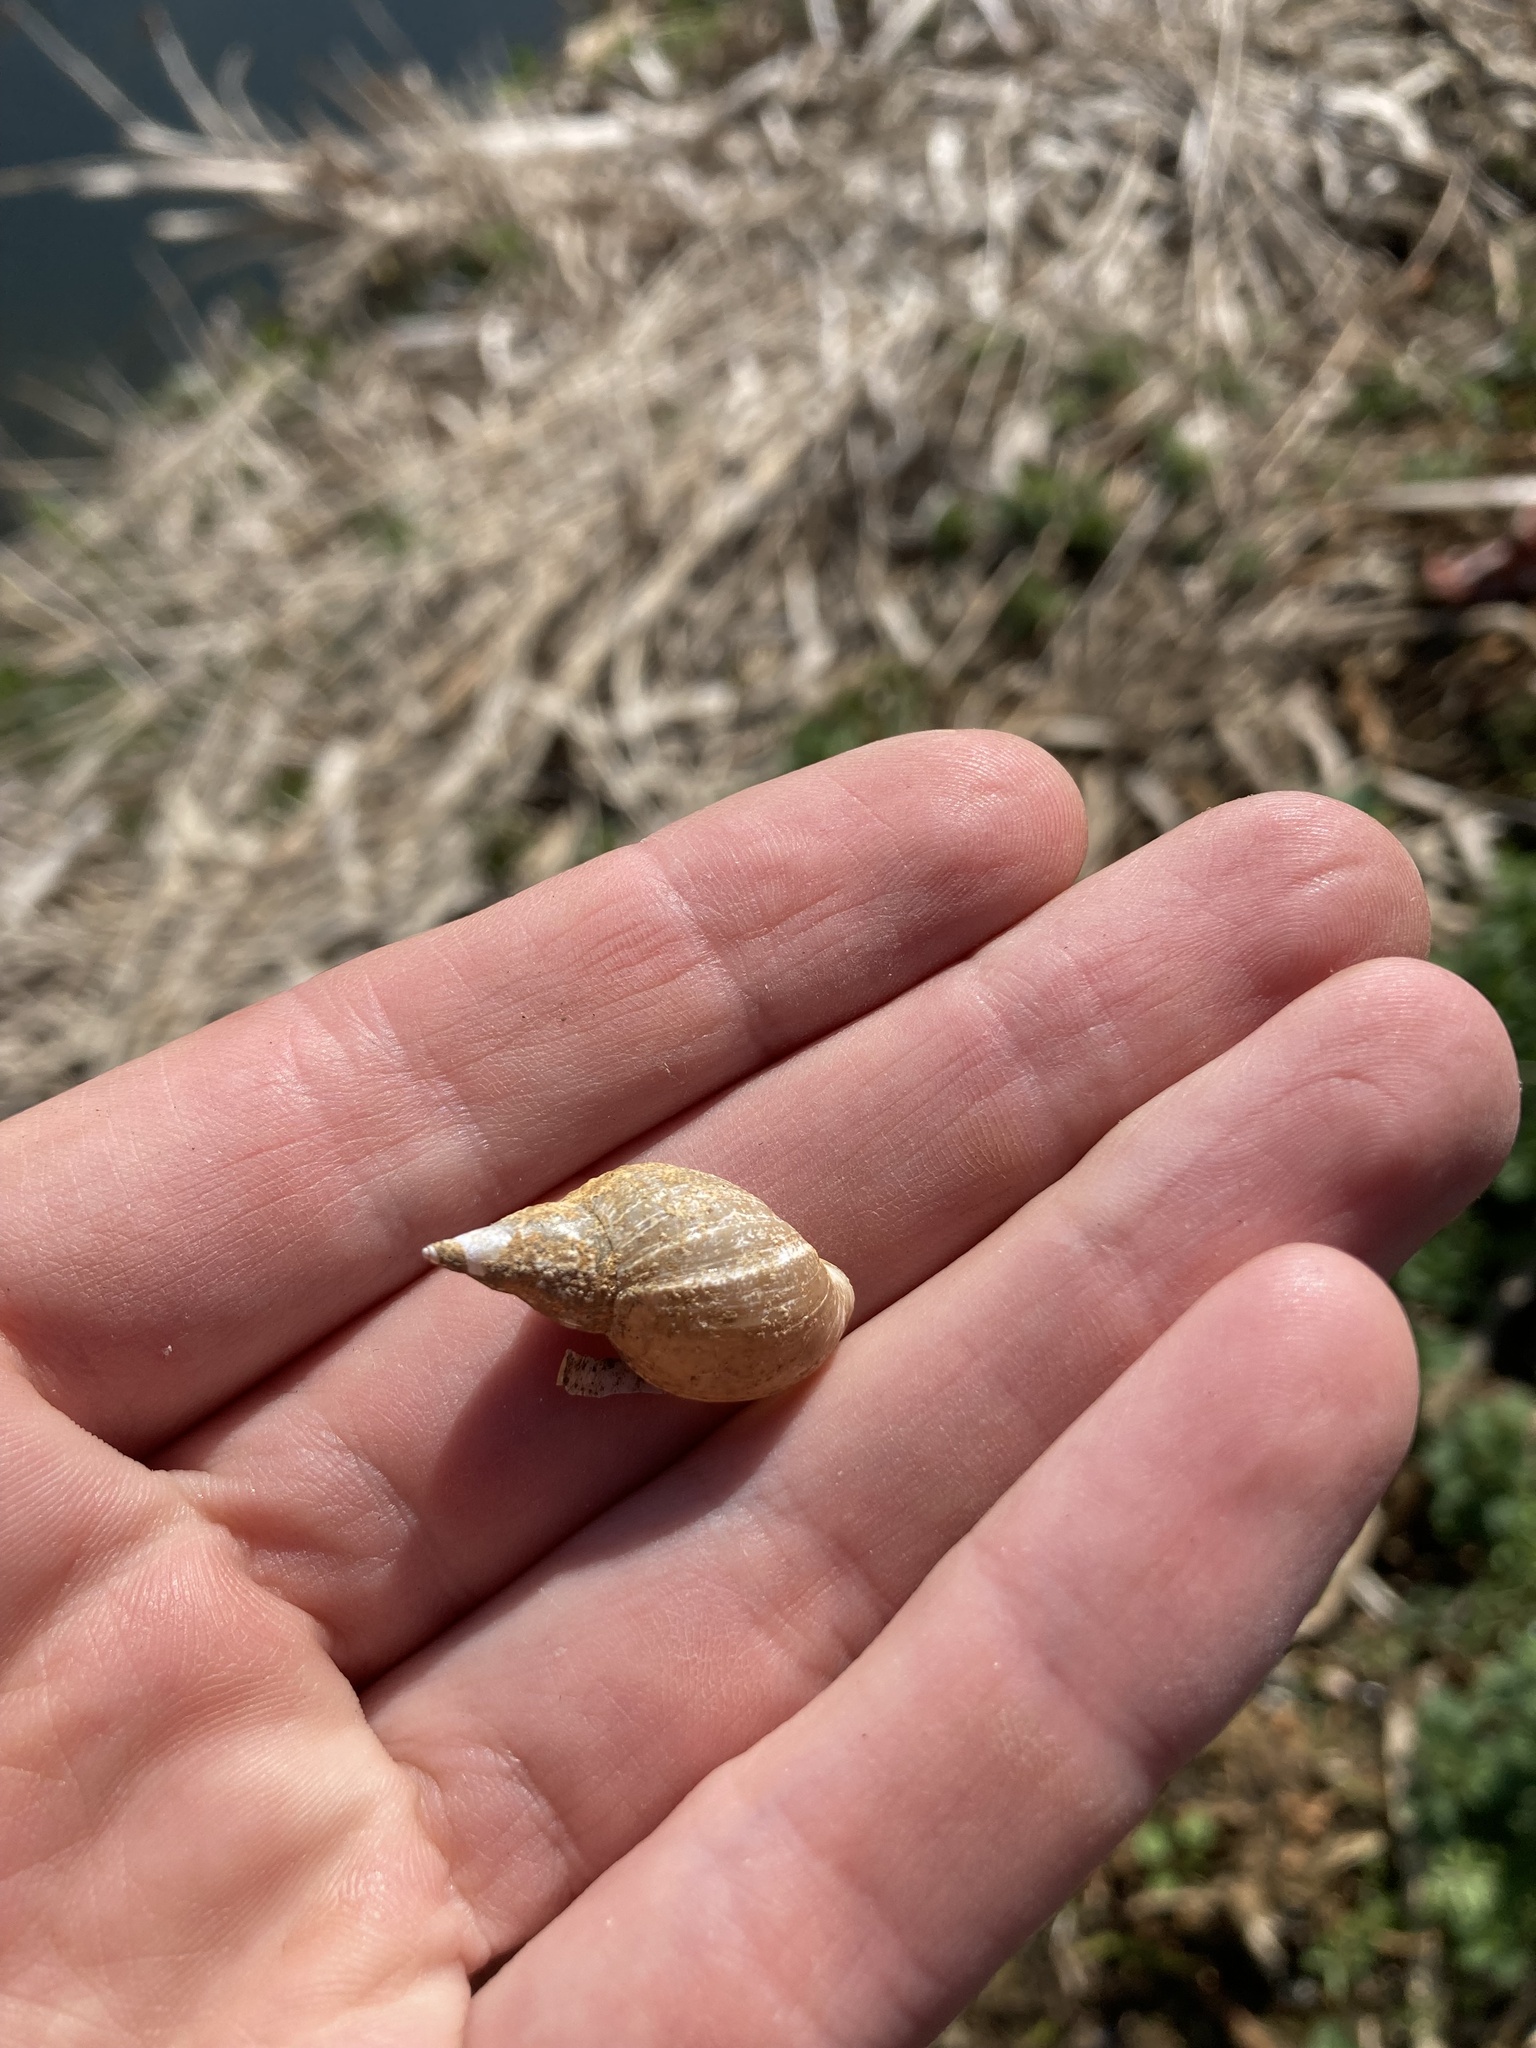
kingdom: Animalia
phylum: Mollusca
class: Gastropoda
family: Lymnaeidae
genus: Lymnaea
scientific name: Lymnaea stagnalis
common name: Great pond snail
